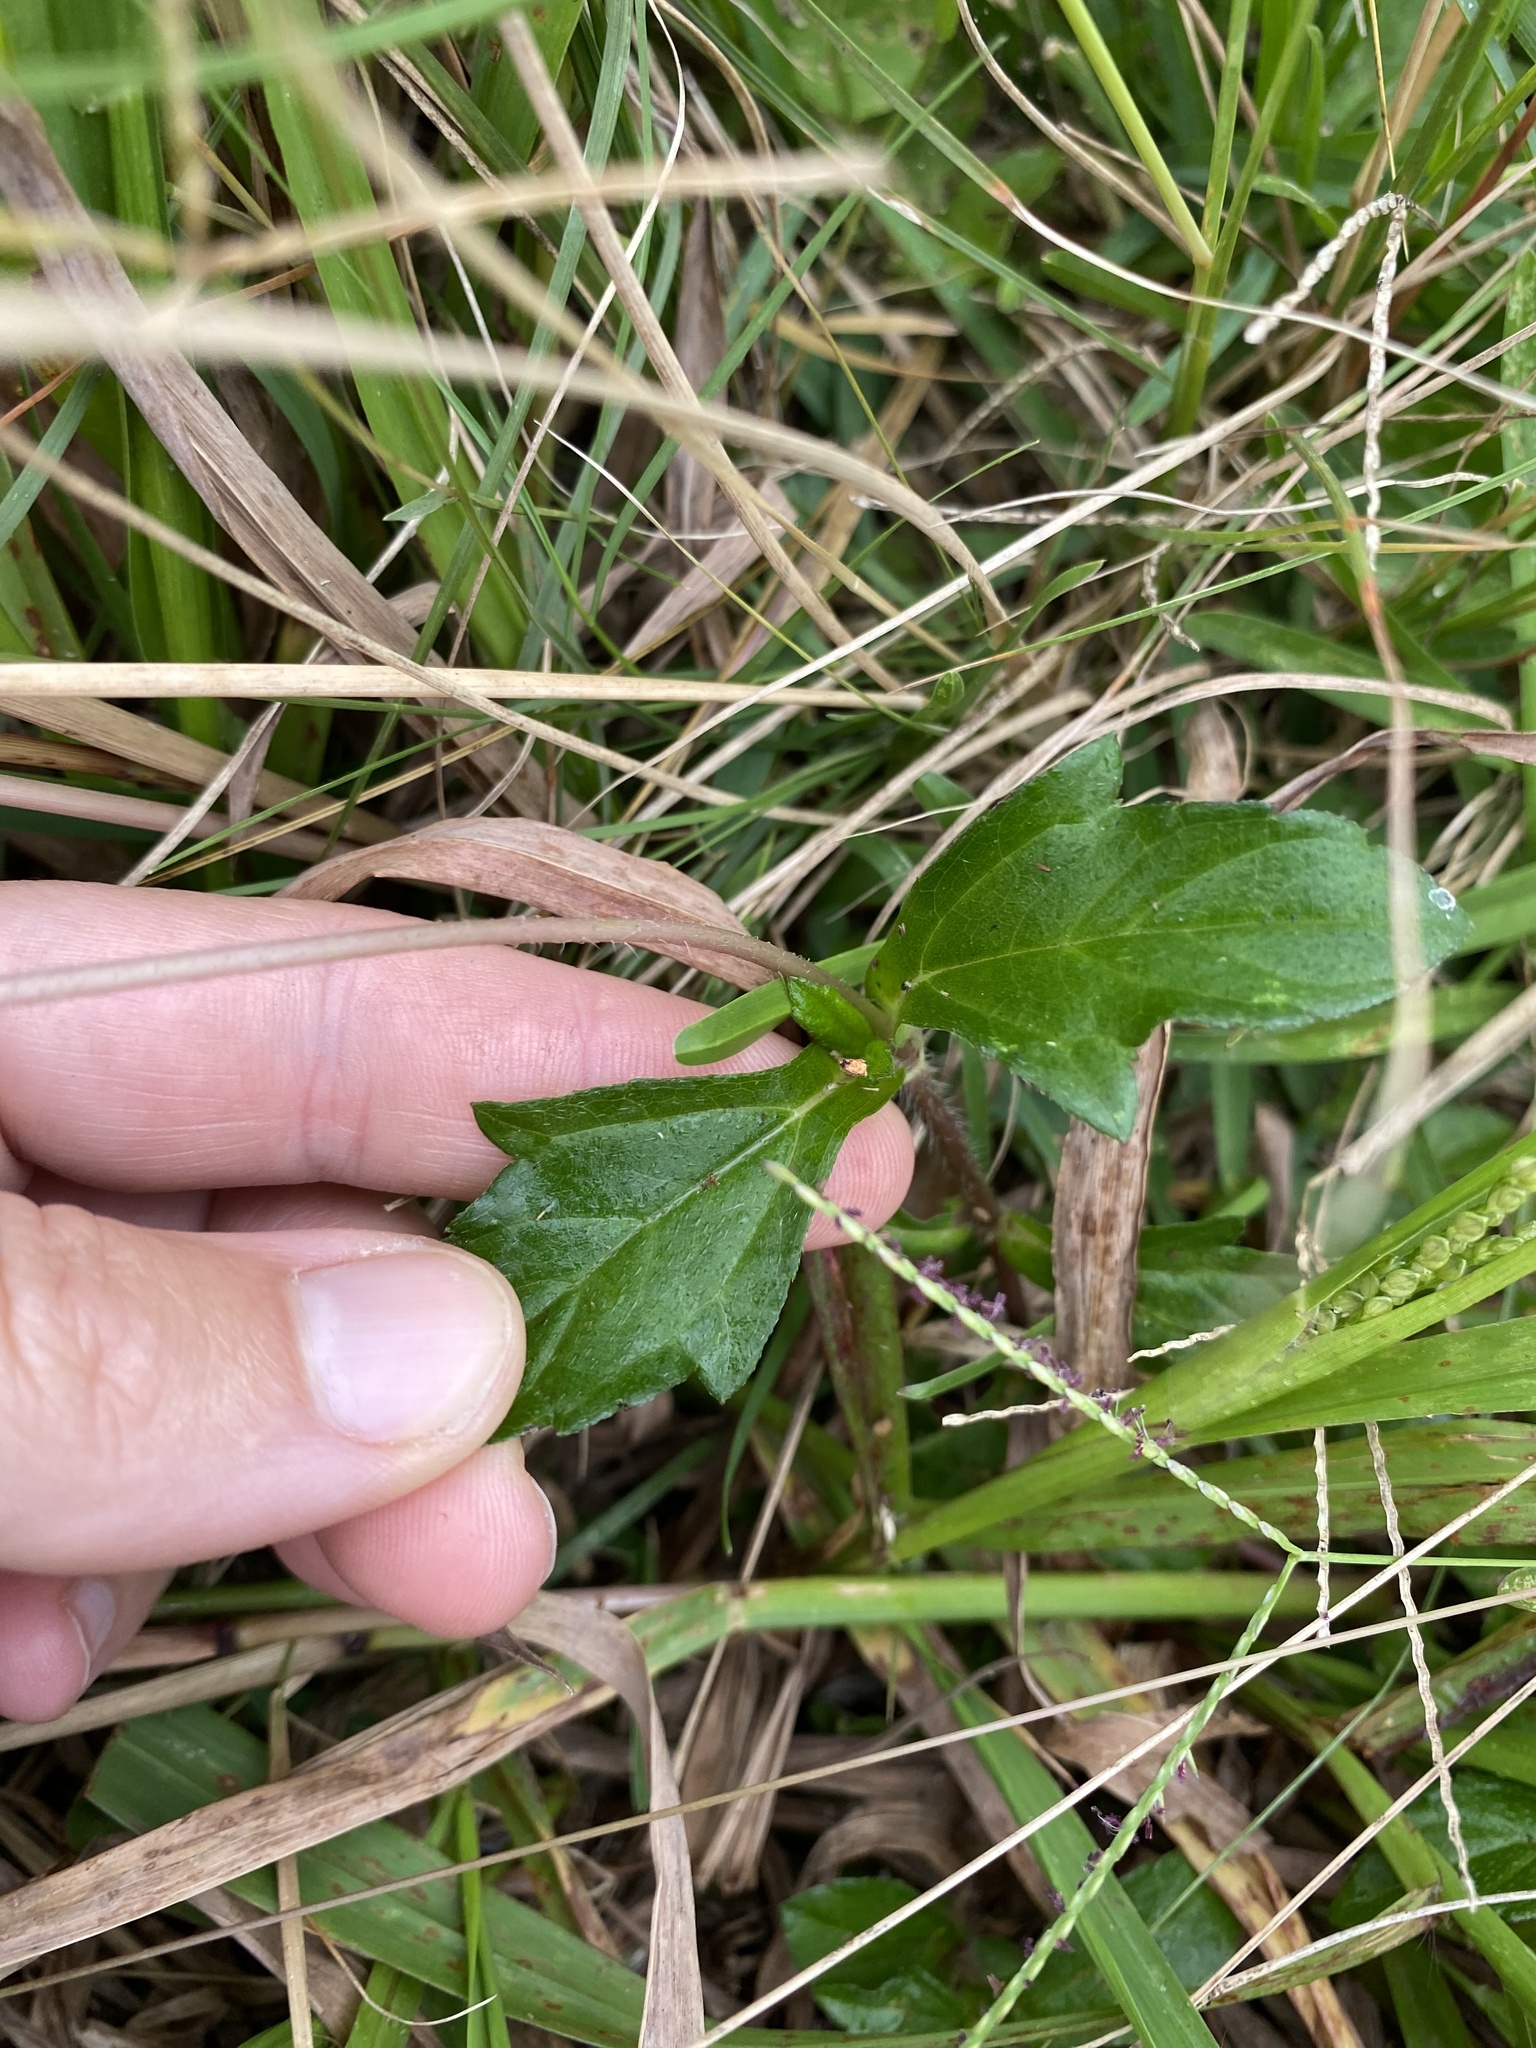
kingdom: Plantae
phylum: Tracheophyta
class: Magnoliopsida
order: Asterales
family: Asteraceae
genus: Sphagneticola
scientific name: Sphagneticola trilobata
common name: Bay biscayne creeping-oxeye
